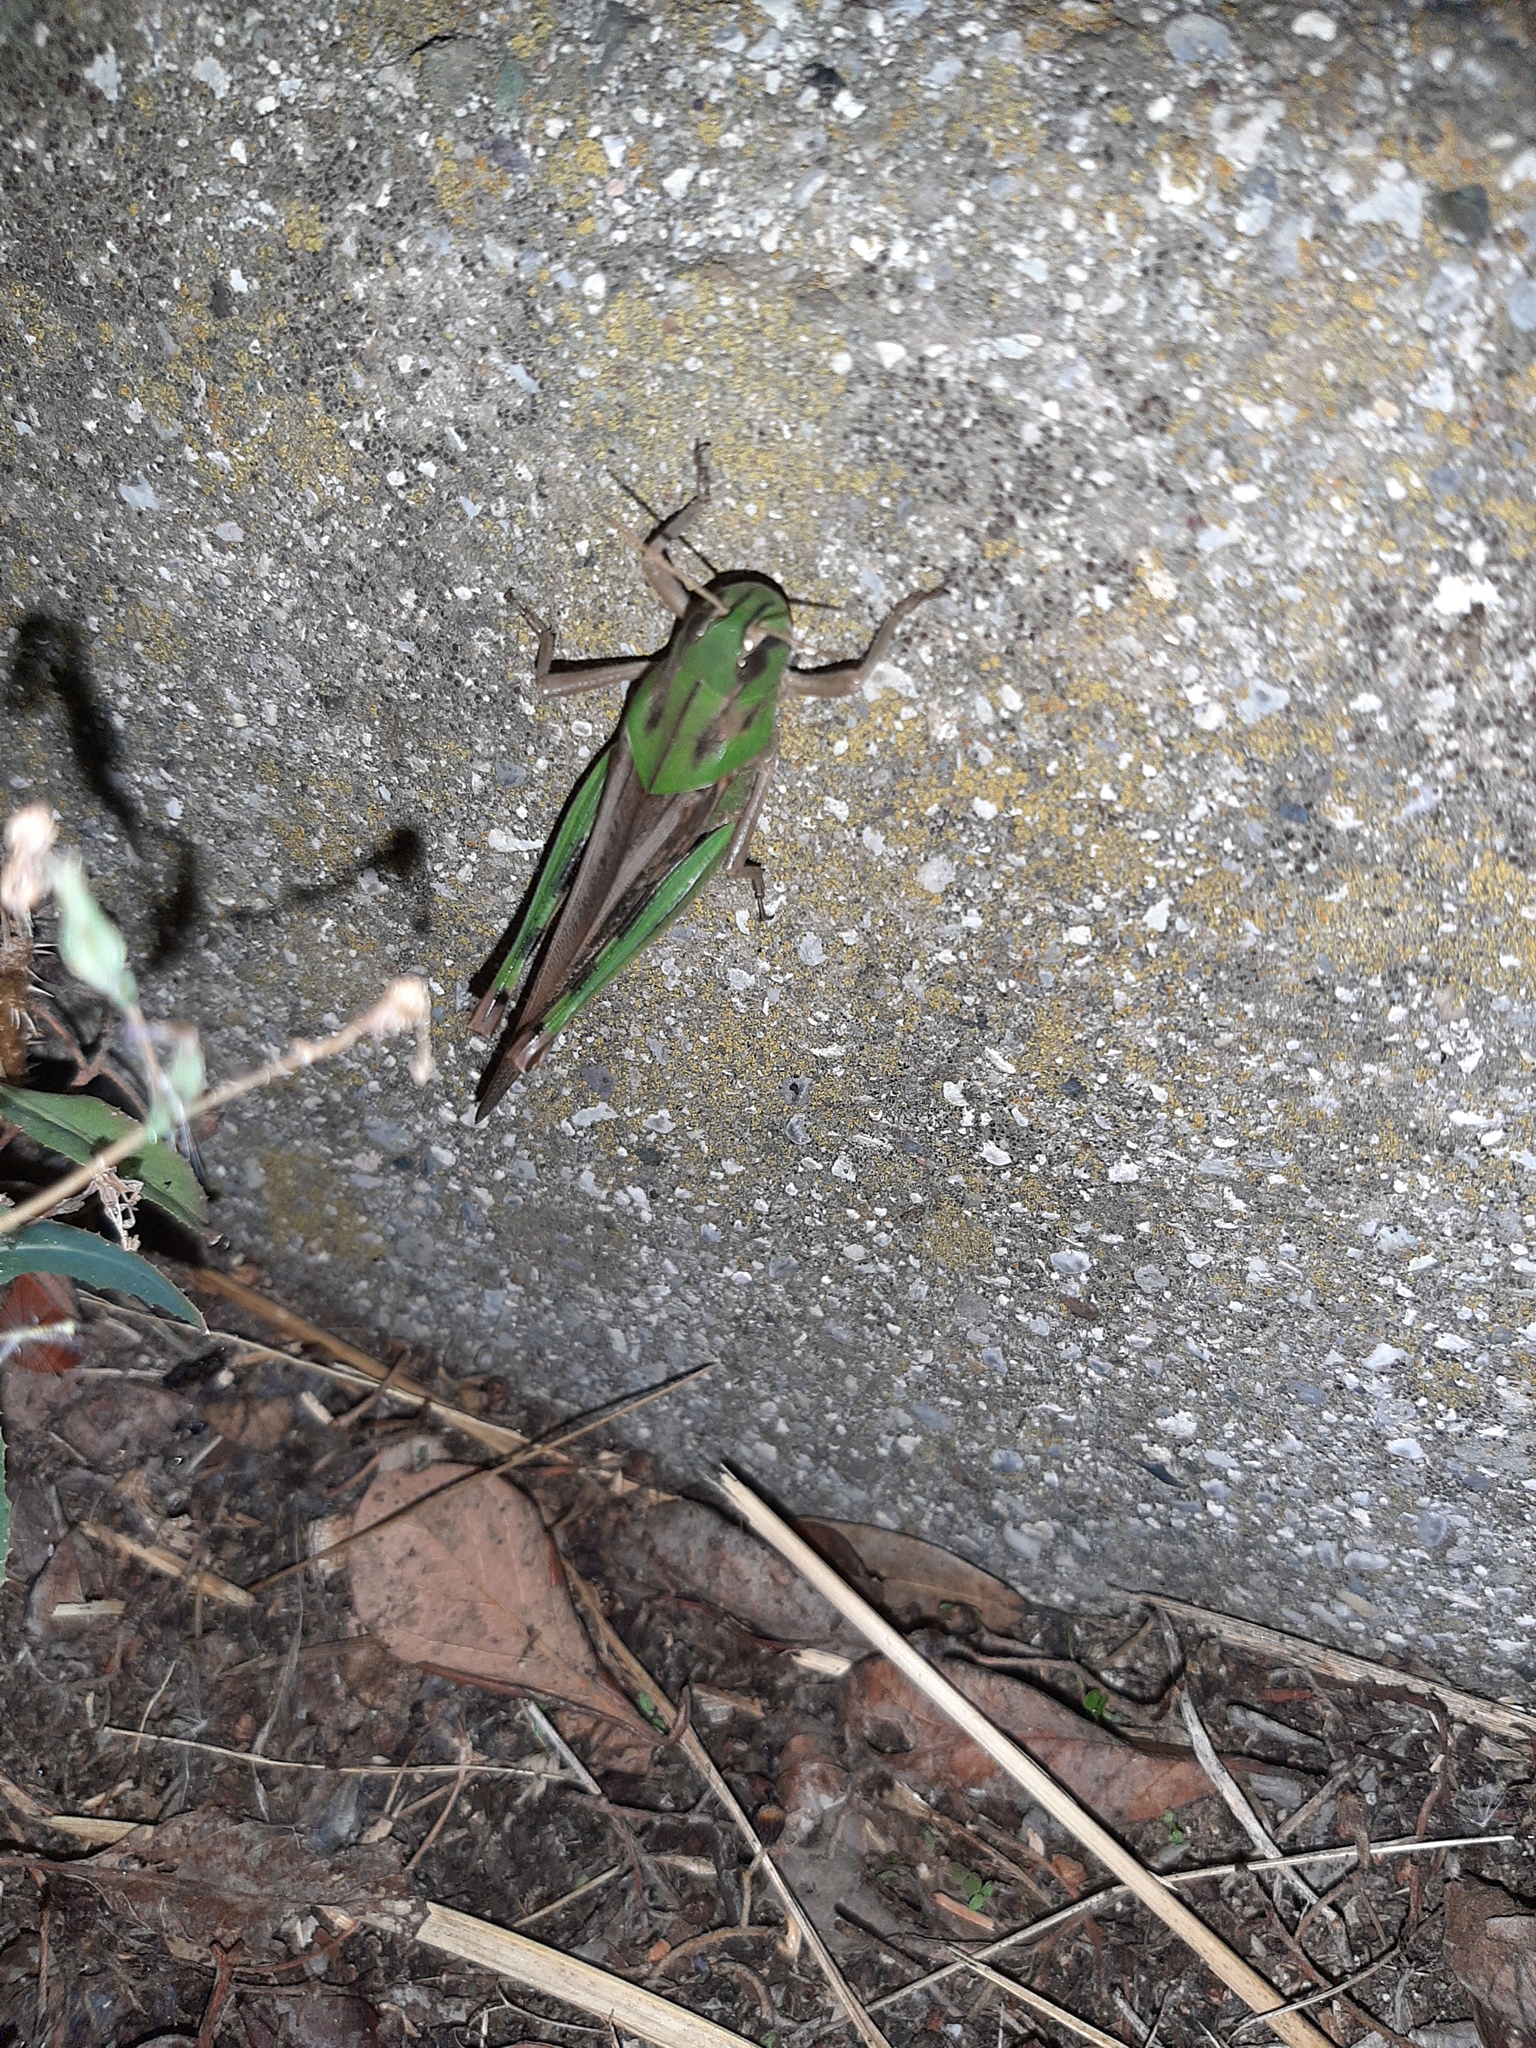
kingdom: Animalia
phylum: Arthropoda
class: Insecta
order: Orthoptera
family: Acrididae
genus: Locusta
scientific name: Locusta migratoria
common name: Migratory locust
